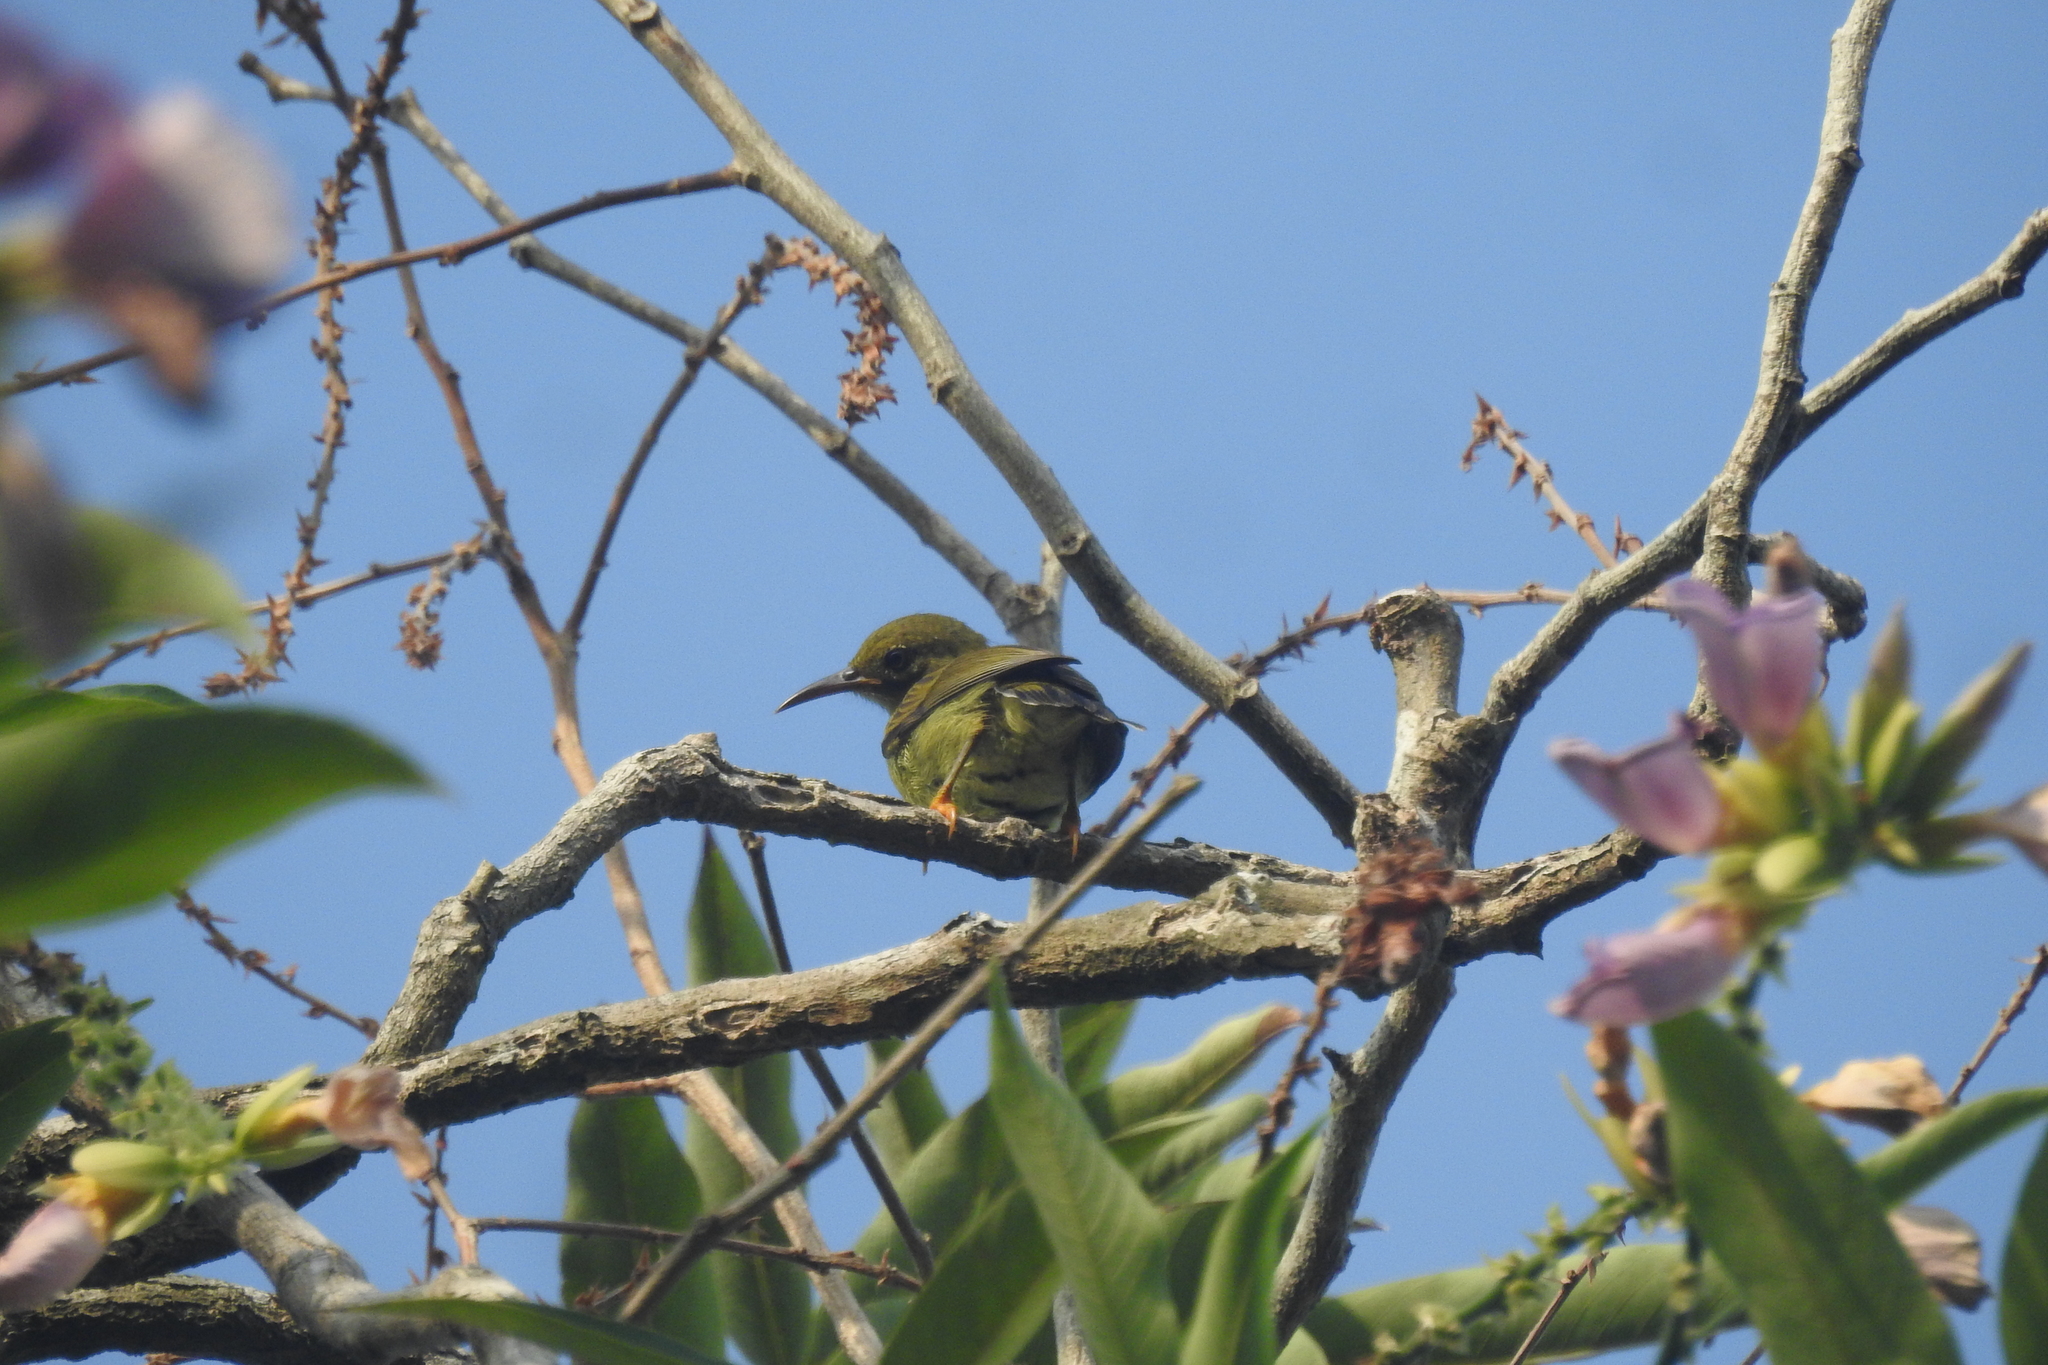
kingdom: Animalia
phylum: Chordata
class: Aves
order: Passeriformes
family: Nectariniidae
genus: Anthreptes
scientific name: Anthreptes malacensis
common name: Brown-throated sunbird
